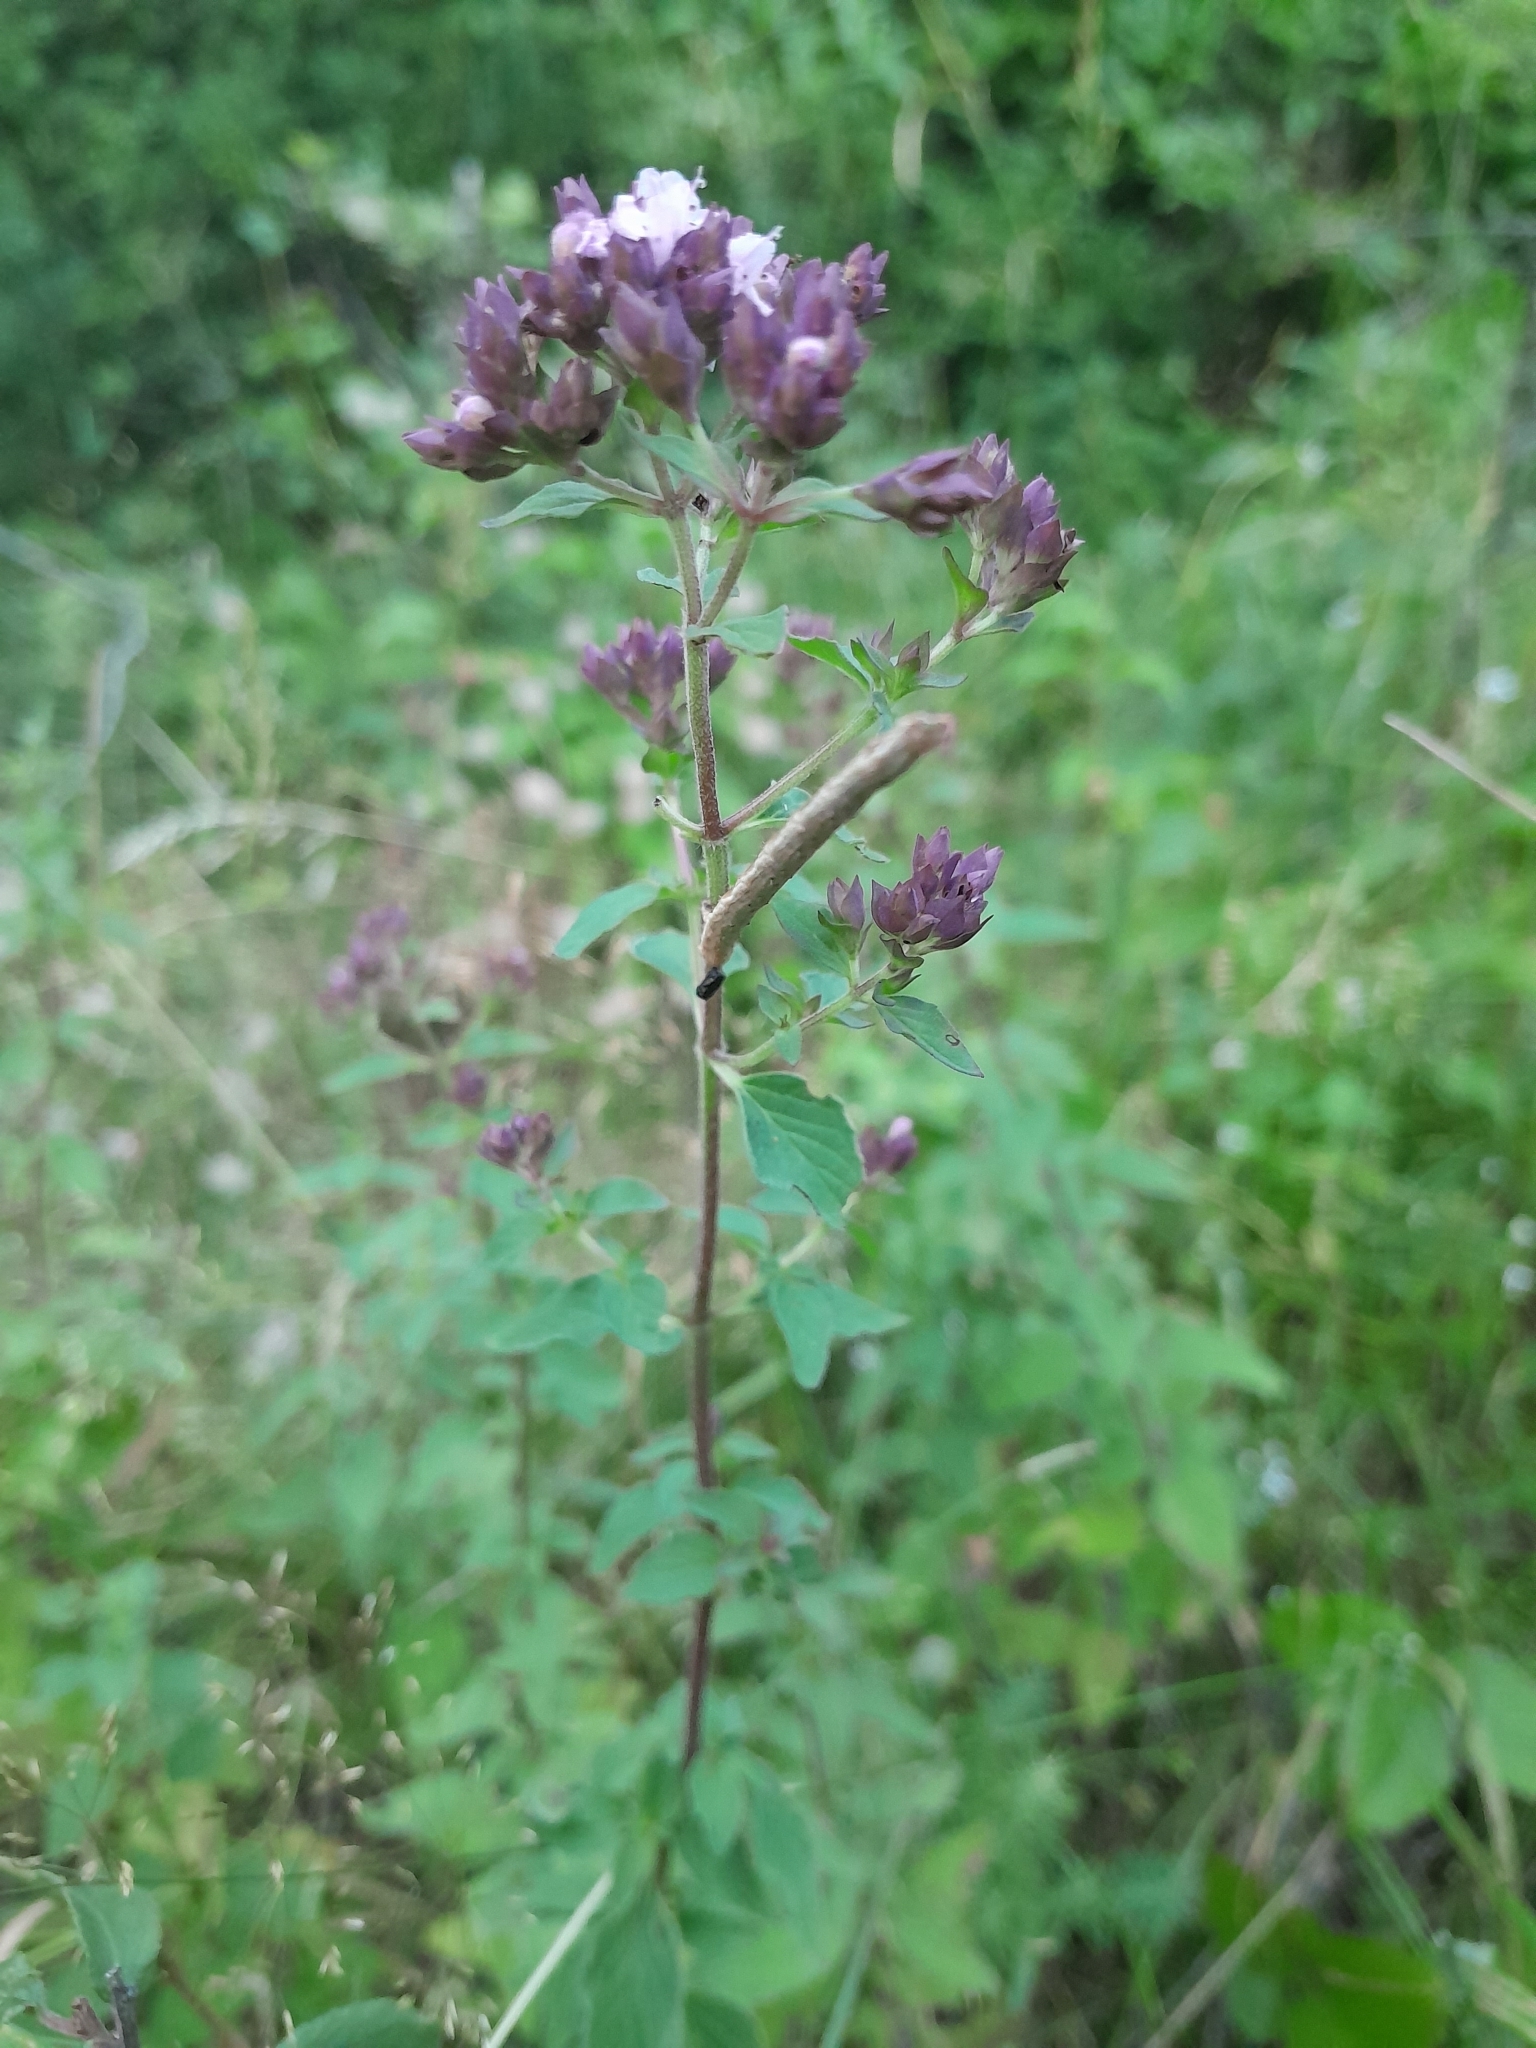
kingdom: Plantae
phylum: Tracheophyta
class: Magnoliopsida
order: Lamiales
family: Lamiaceae
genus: Origanum
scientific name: Origanum vulgare
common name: Wild marjoram
